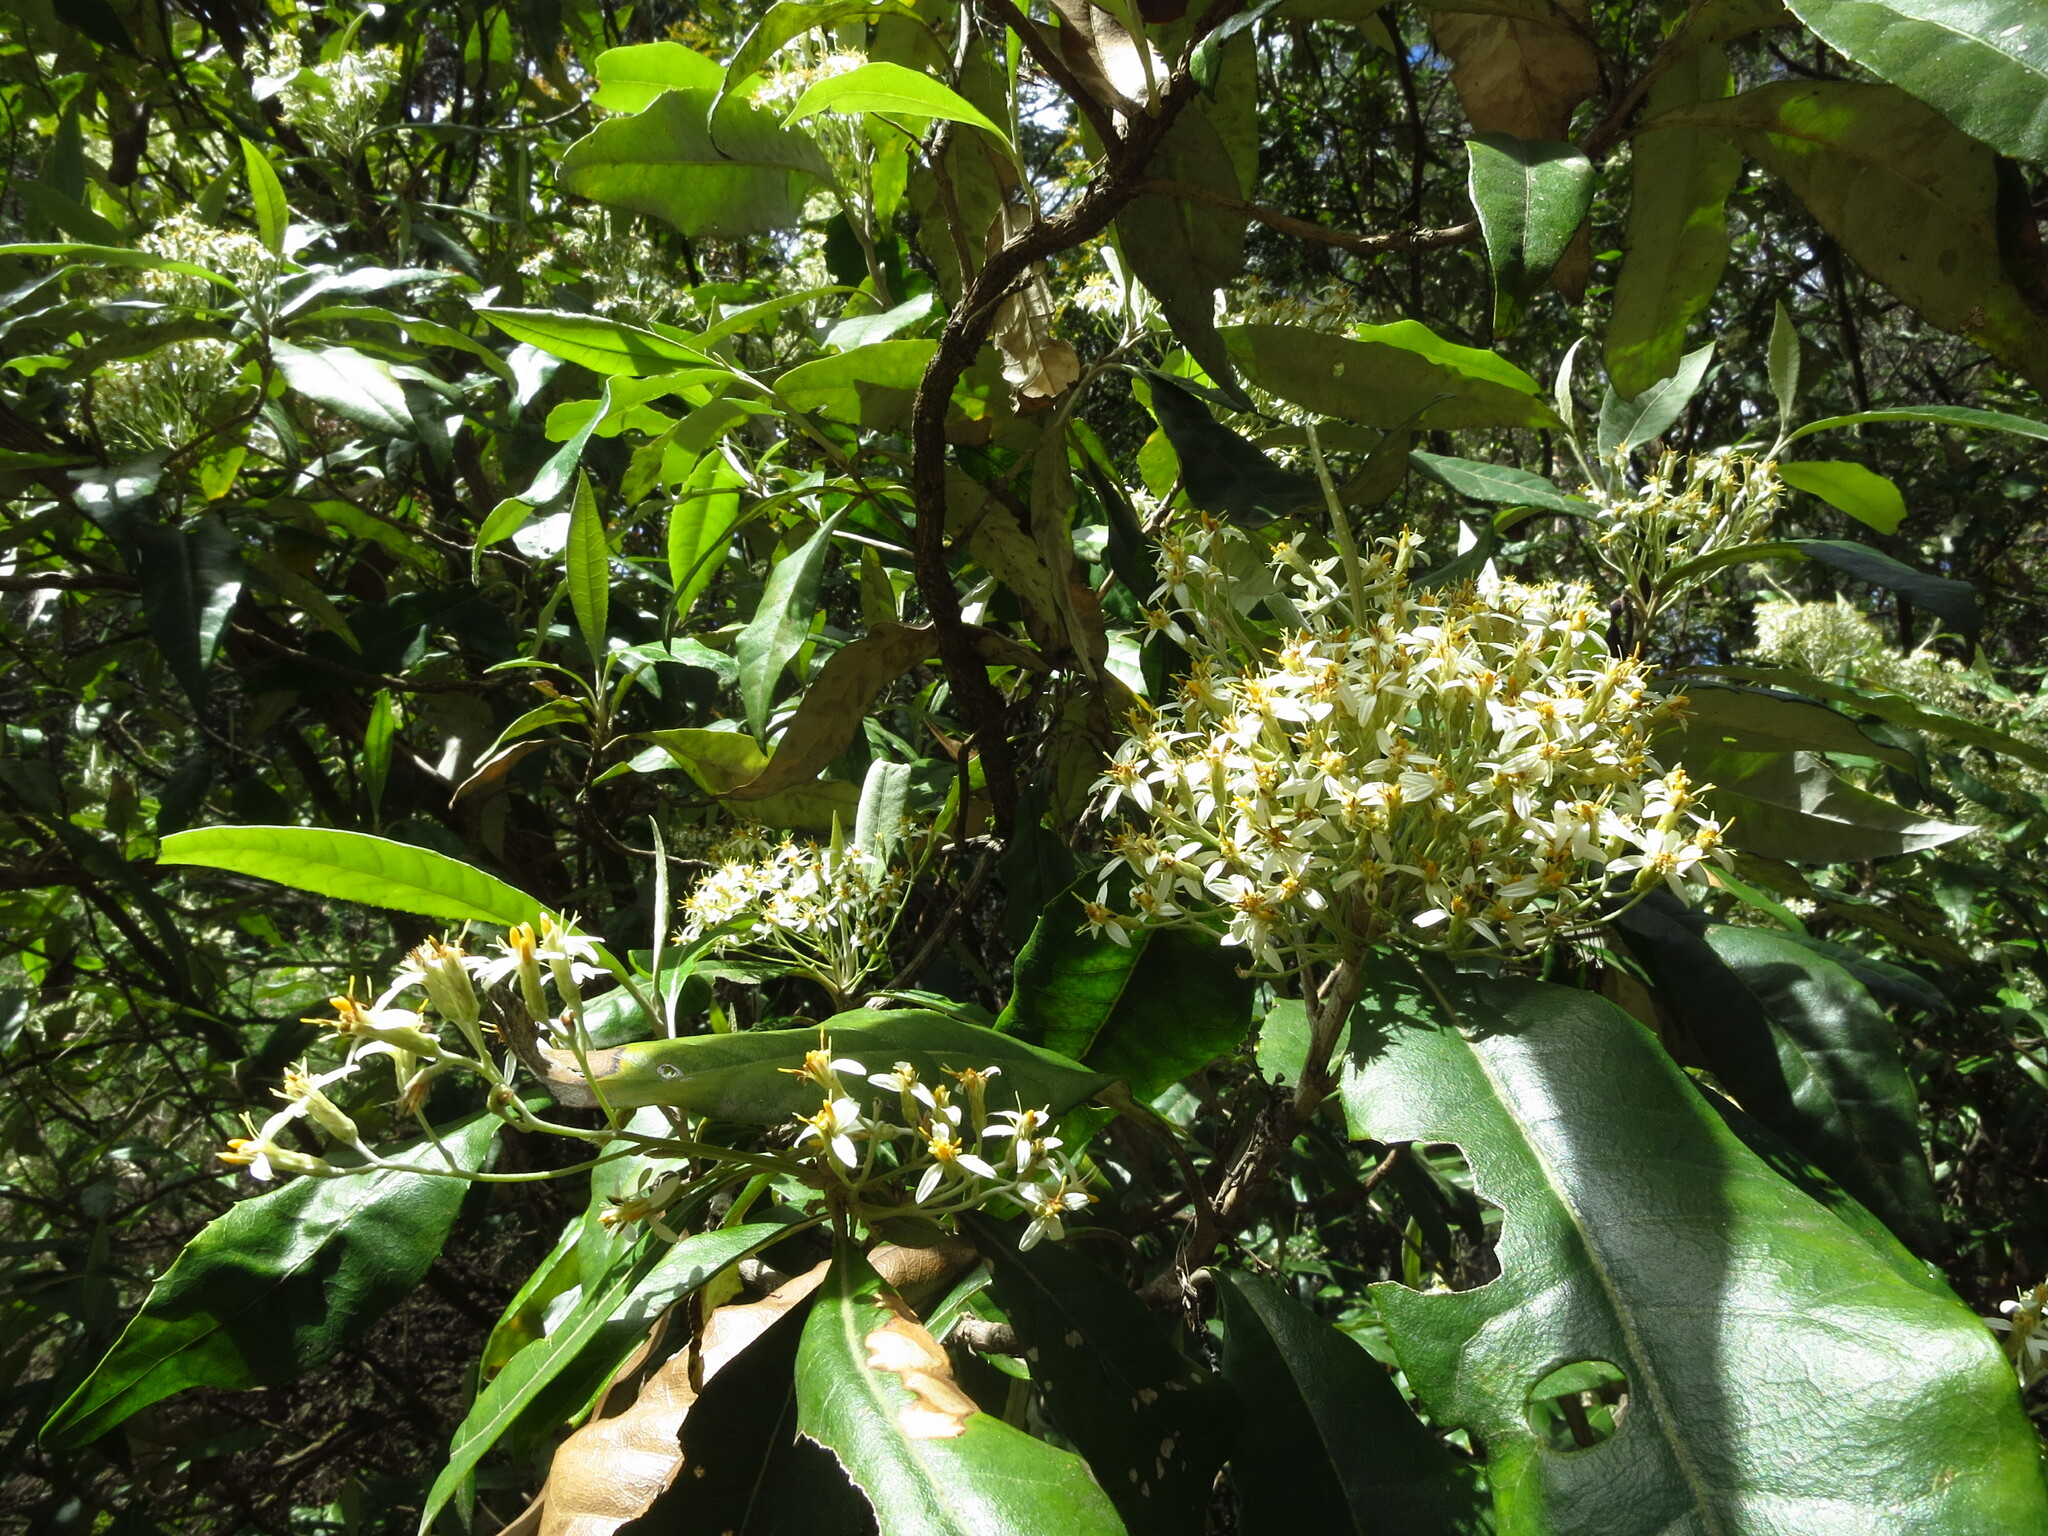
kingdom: Plantae
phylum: Tracheophyta
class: Magnoliopsida
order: Asterales
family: Asteraceae
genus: Olearia
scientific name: Olearia argophylla
